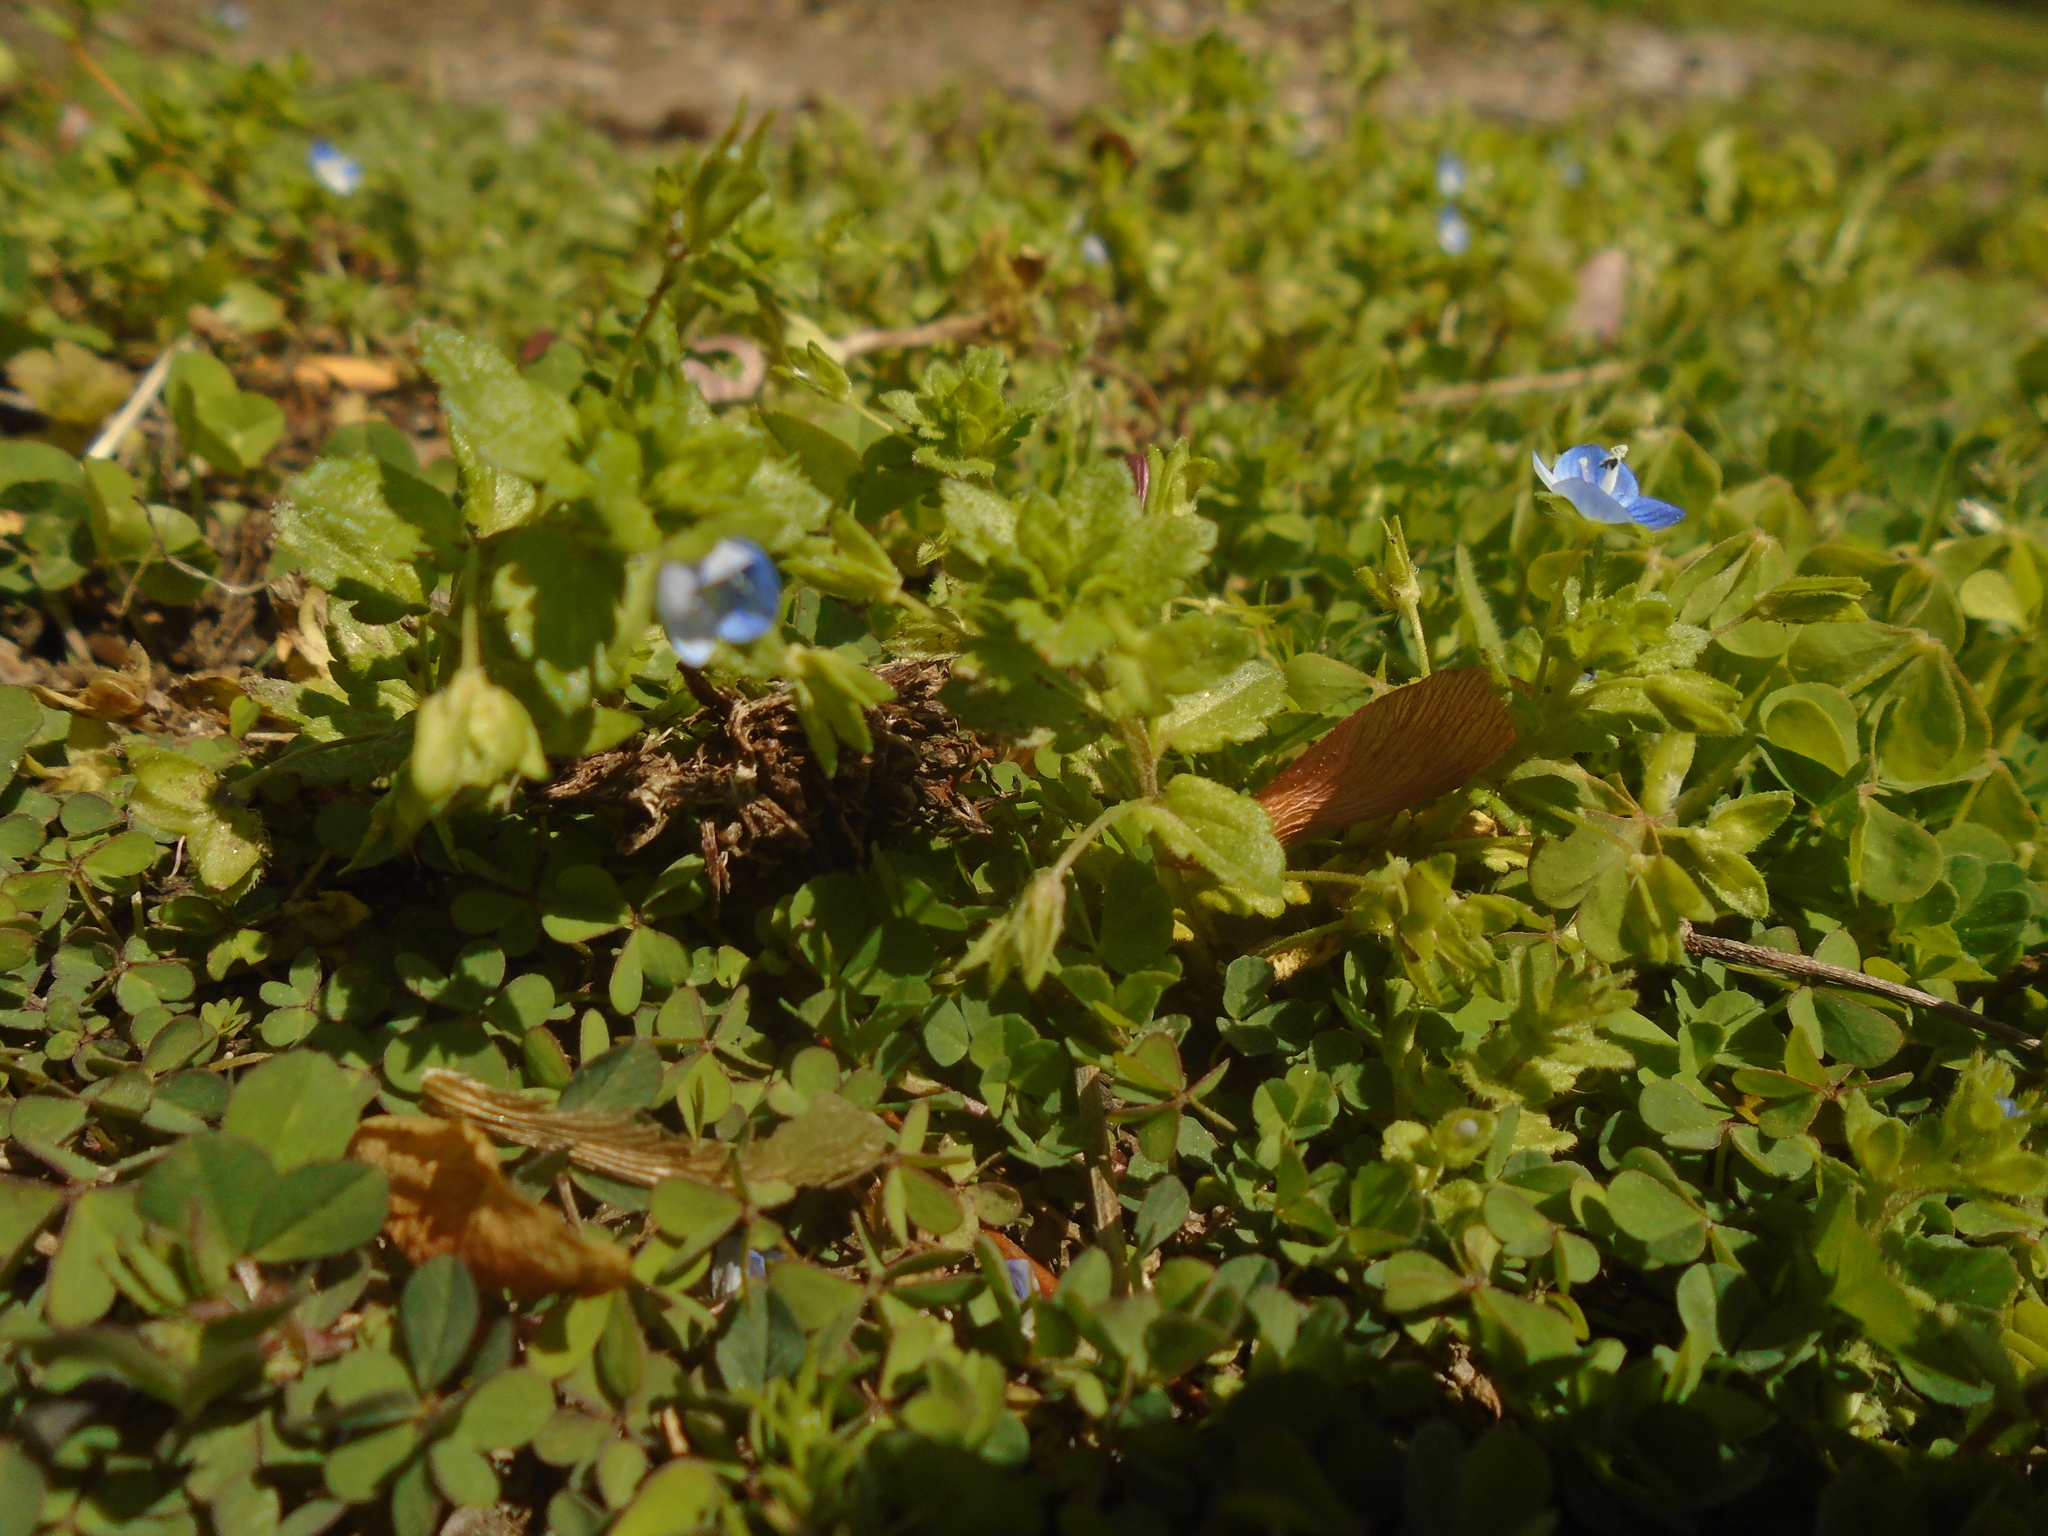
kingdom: Plantae
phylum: Tracheophyta
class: Magnoliopsida
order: Lamiales
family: Plantaginaceae
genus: Veronica
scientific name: Veronica persica
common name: Common field-speedwell
